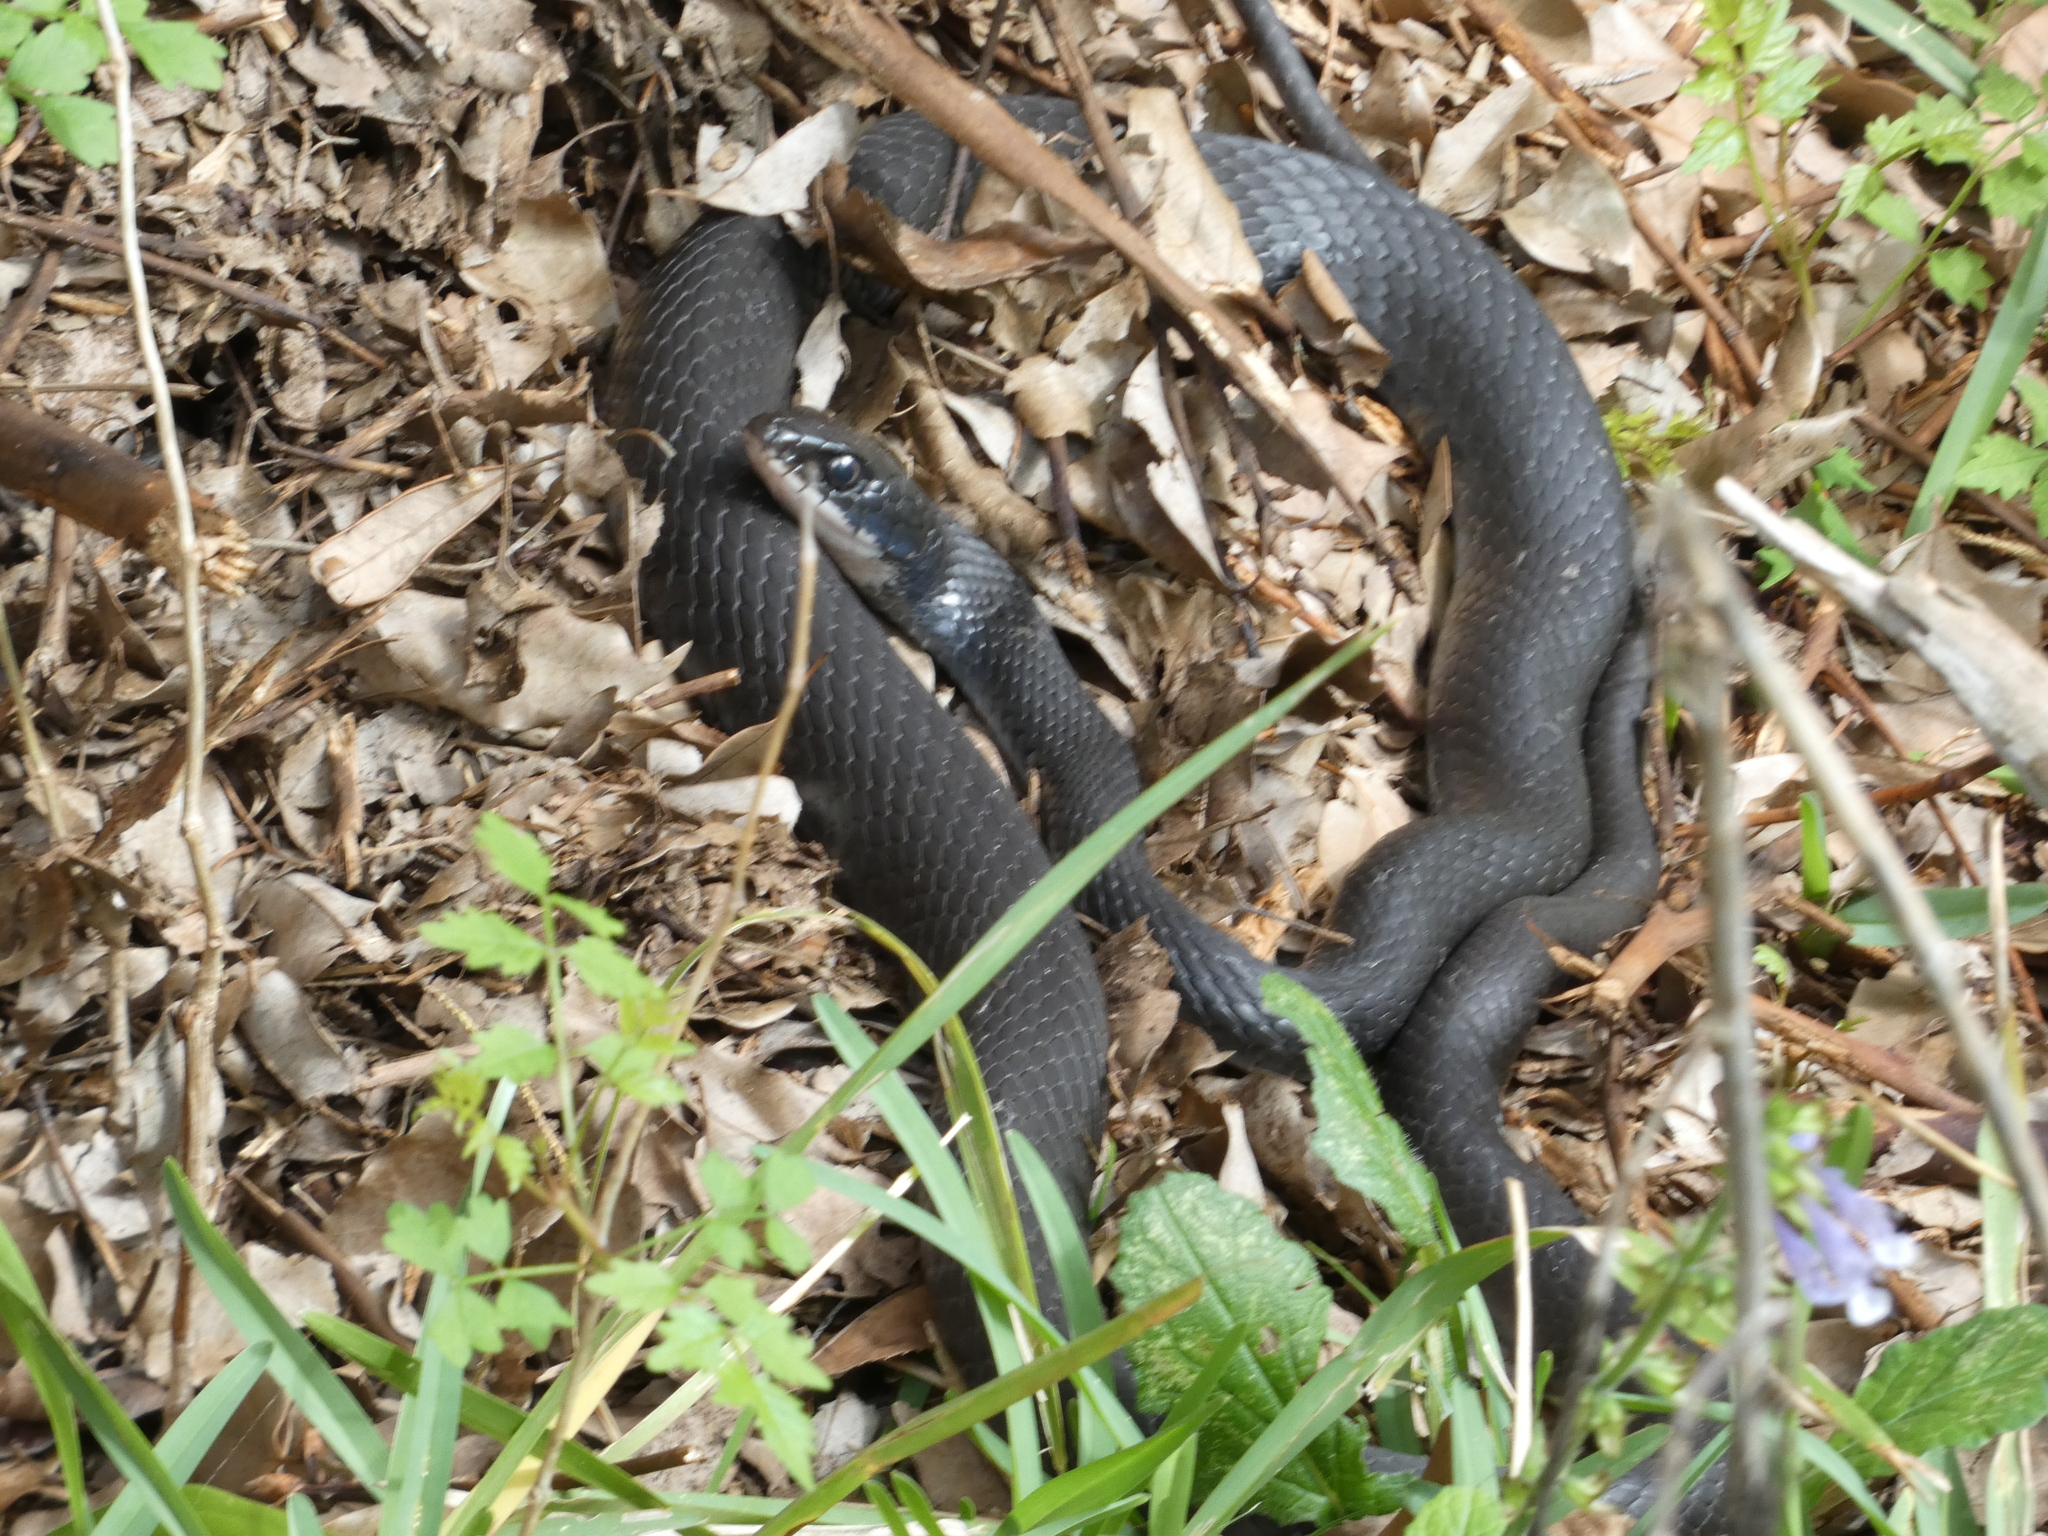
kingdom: Animalia
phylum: Chordata
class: Squamata
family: Colubridae
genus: Coluber
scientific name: Coluber constrictor
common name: Eastern racer
